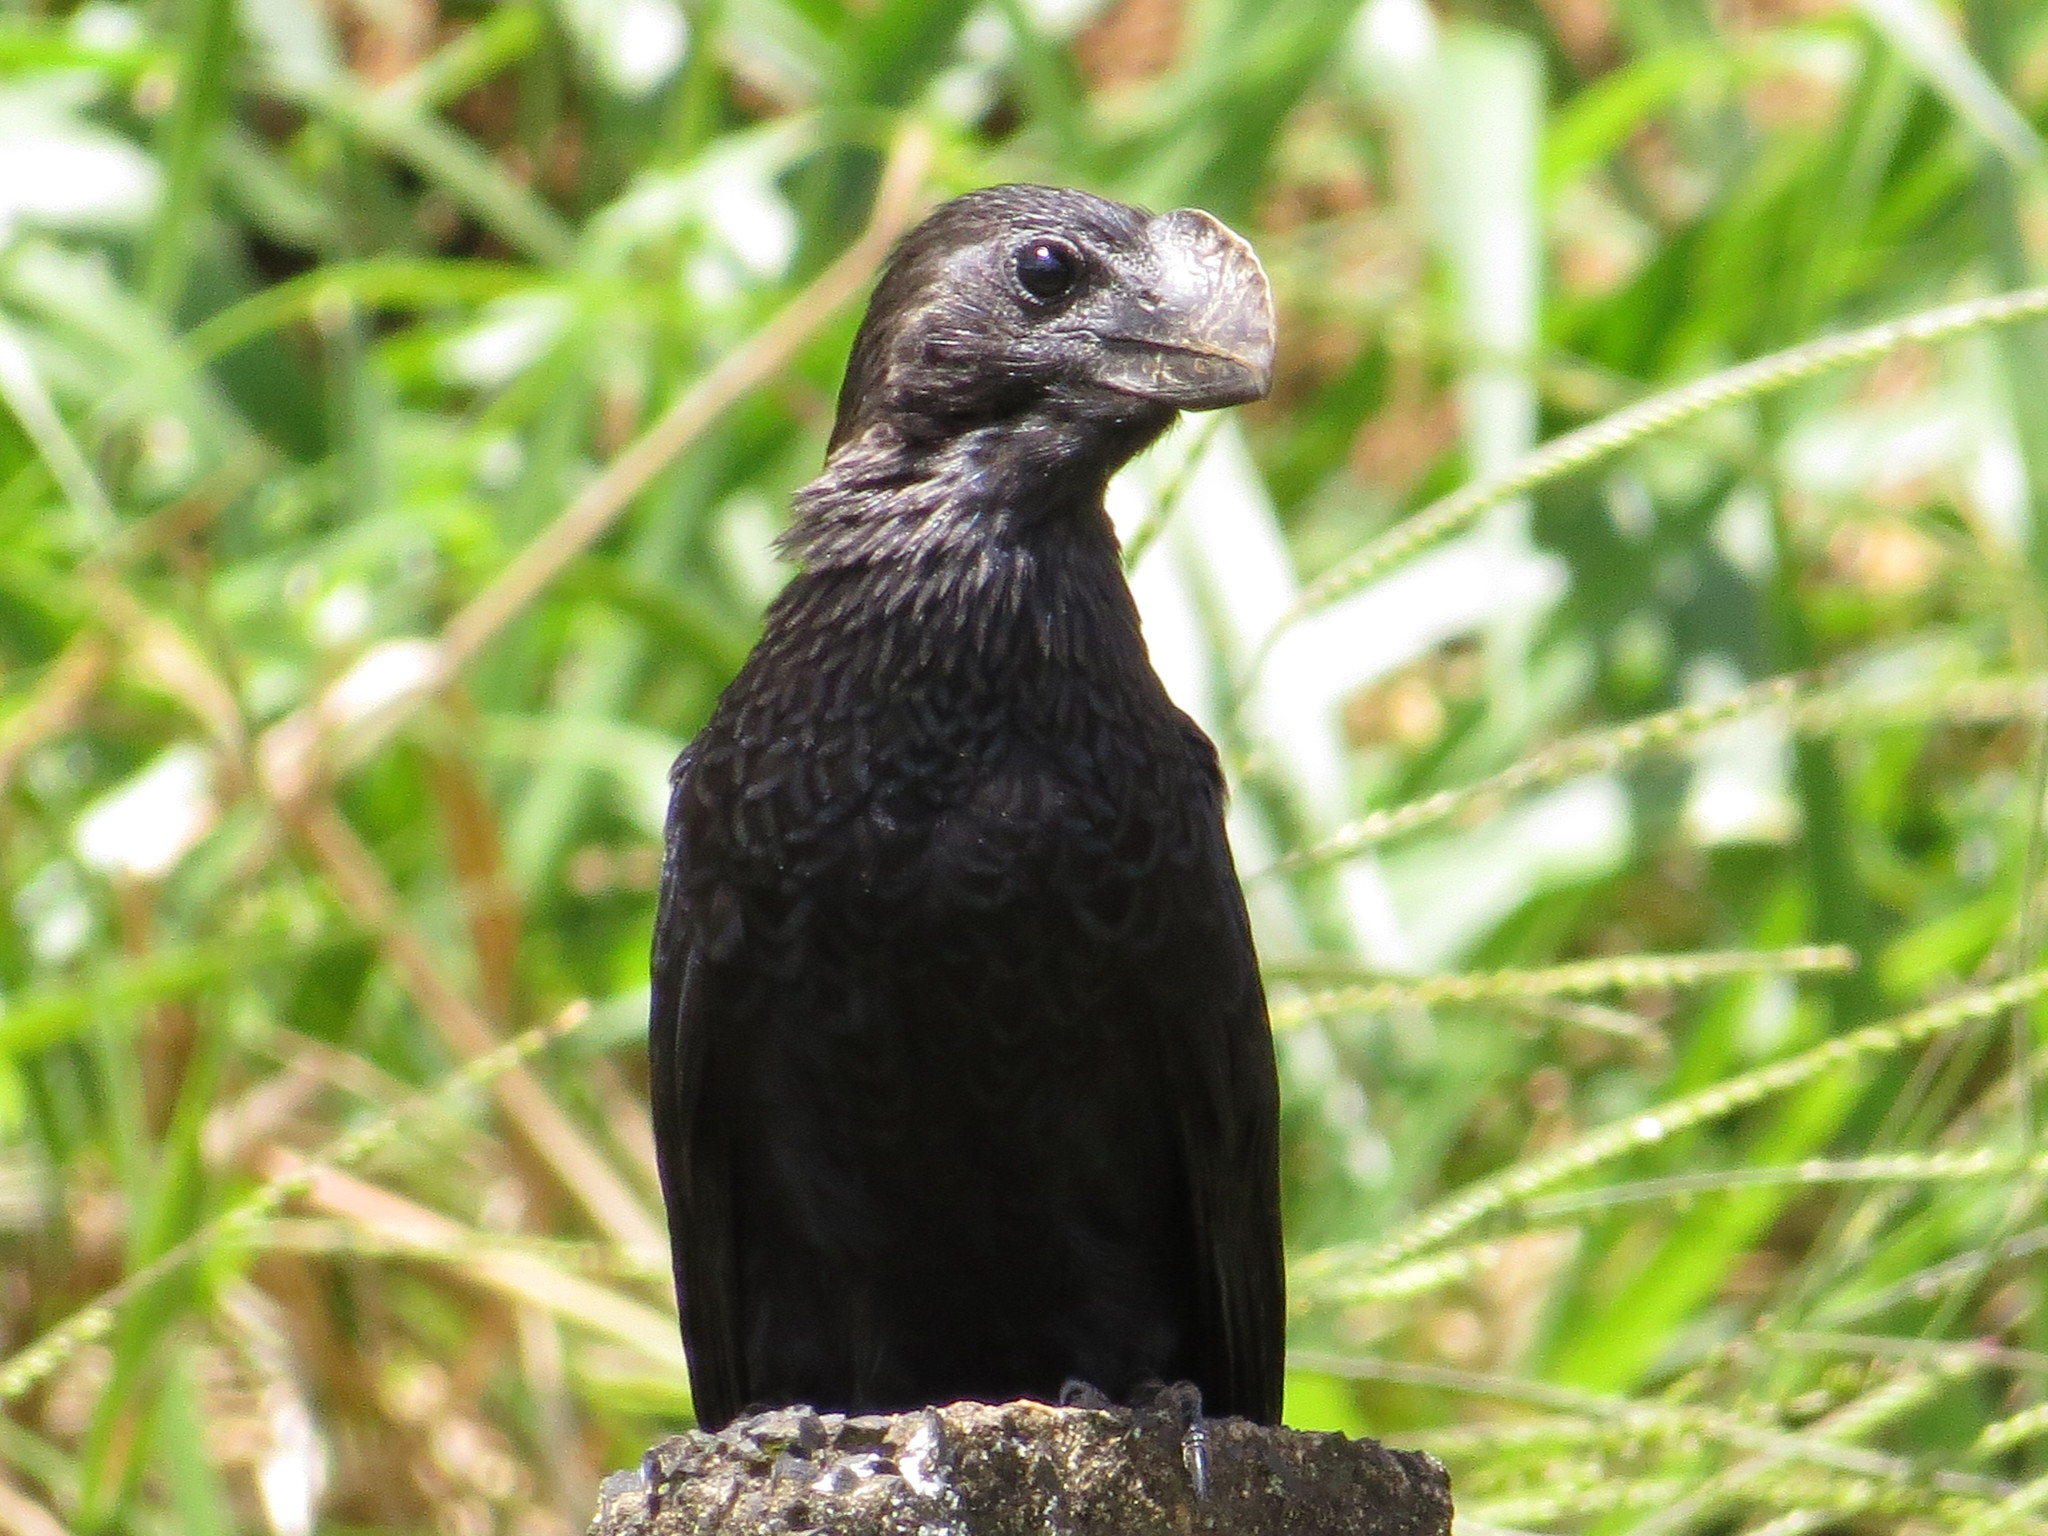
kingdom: Animalia
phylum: Chordata
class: Aves
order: Cuculiformes
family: Cuculidae
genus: Crotophaga
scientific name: Crotophaga ani
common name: Smooth-billed ani
